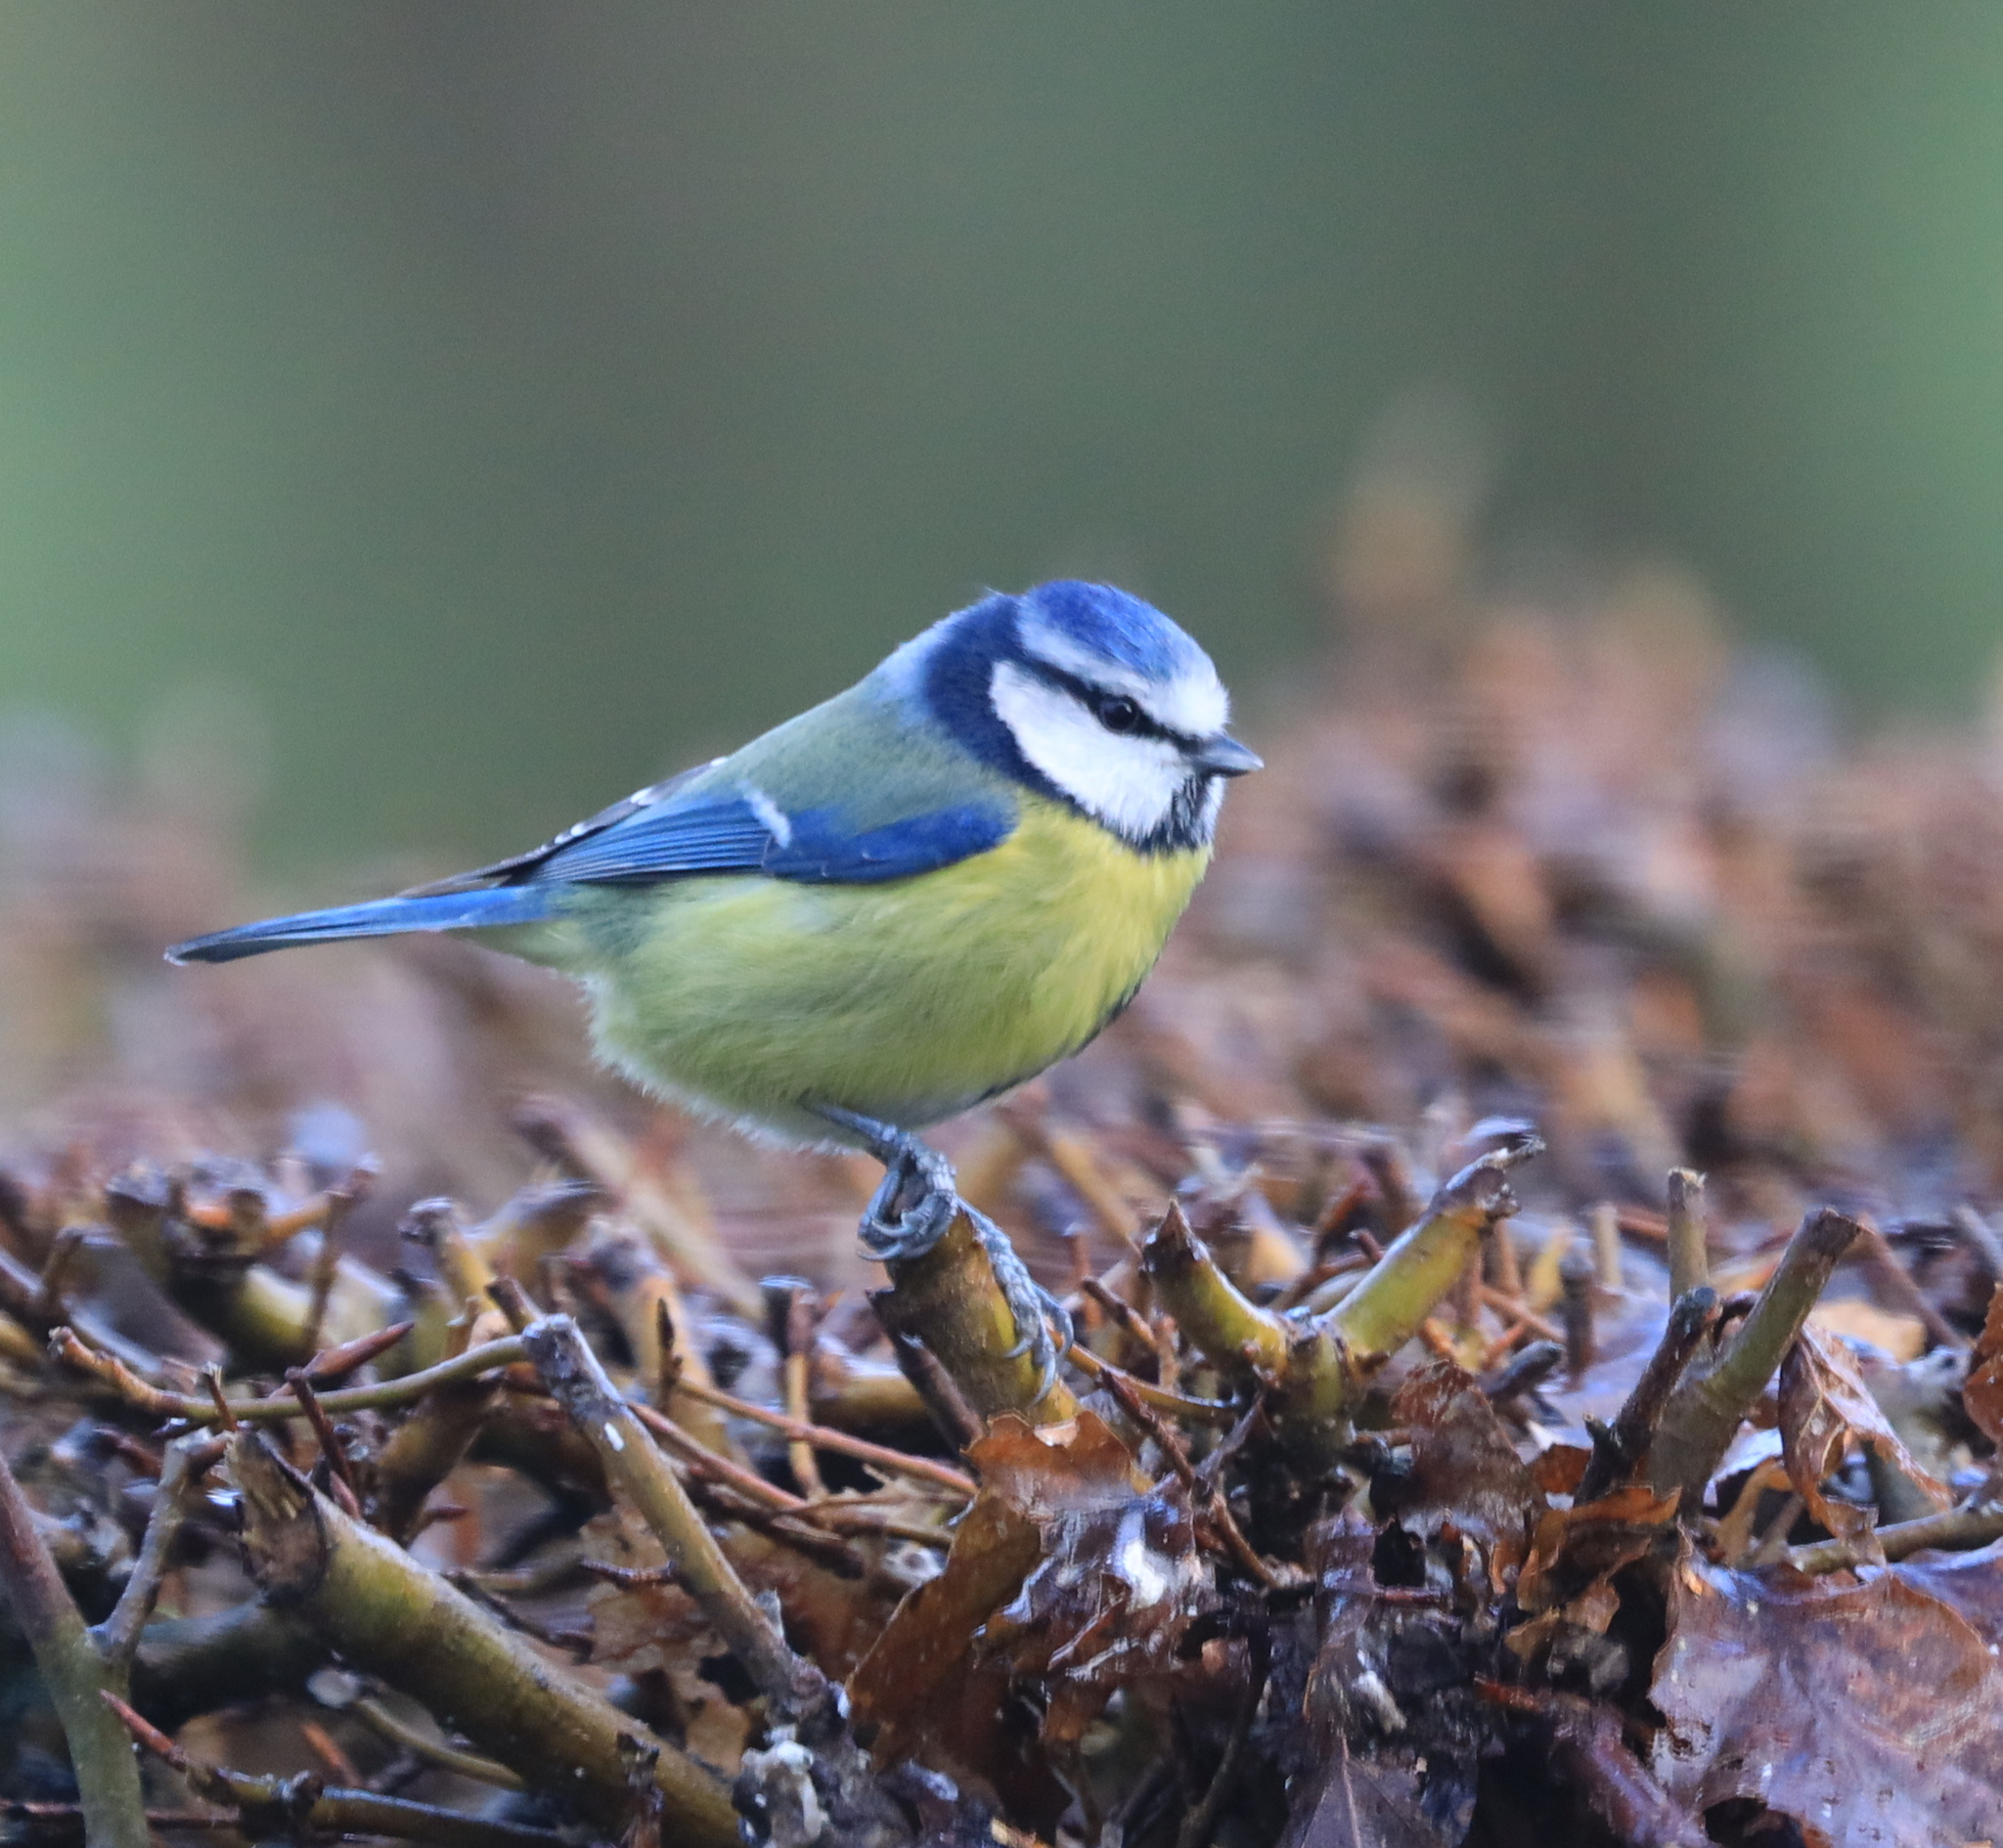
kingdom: Animalia
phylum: Chordata
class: Aves
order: Passeriformes
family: Paridae
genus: Cyanistes
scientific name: Cyanistes caeruleus
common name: Eurasian blue tit
